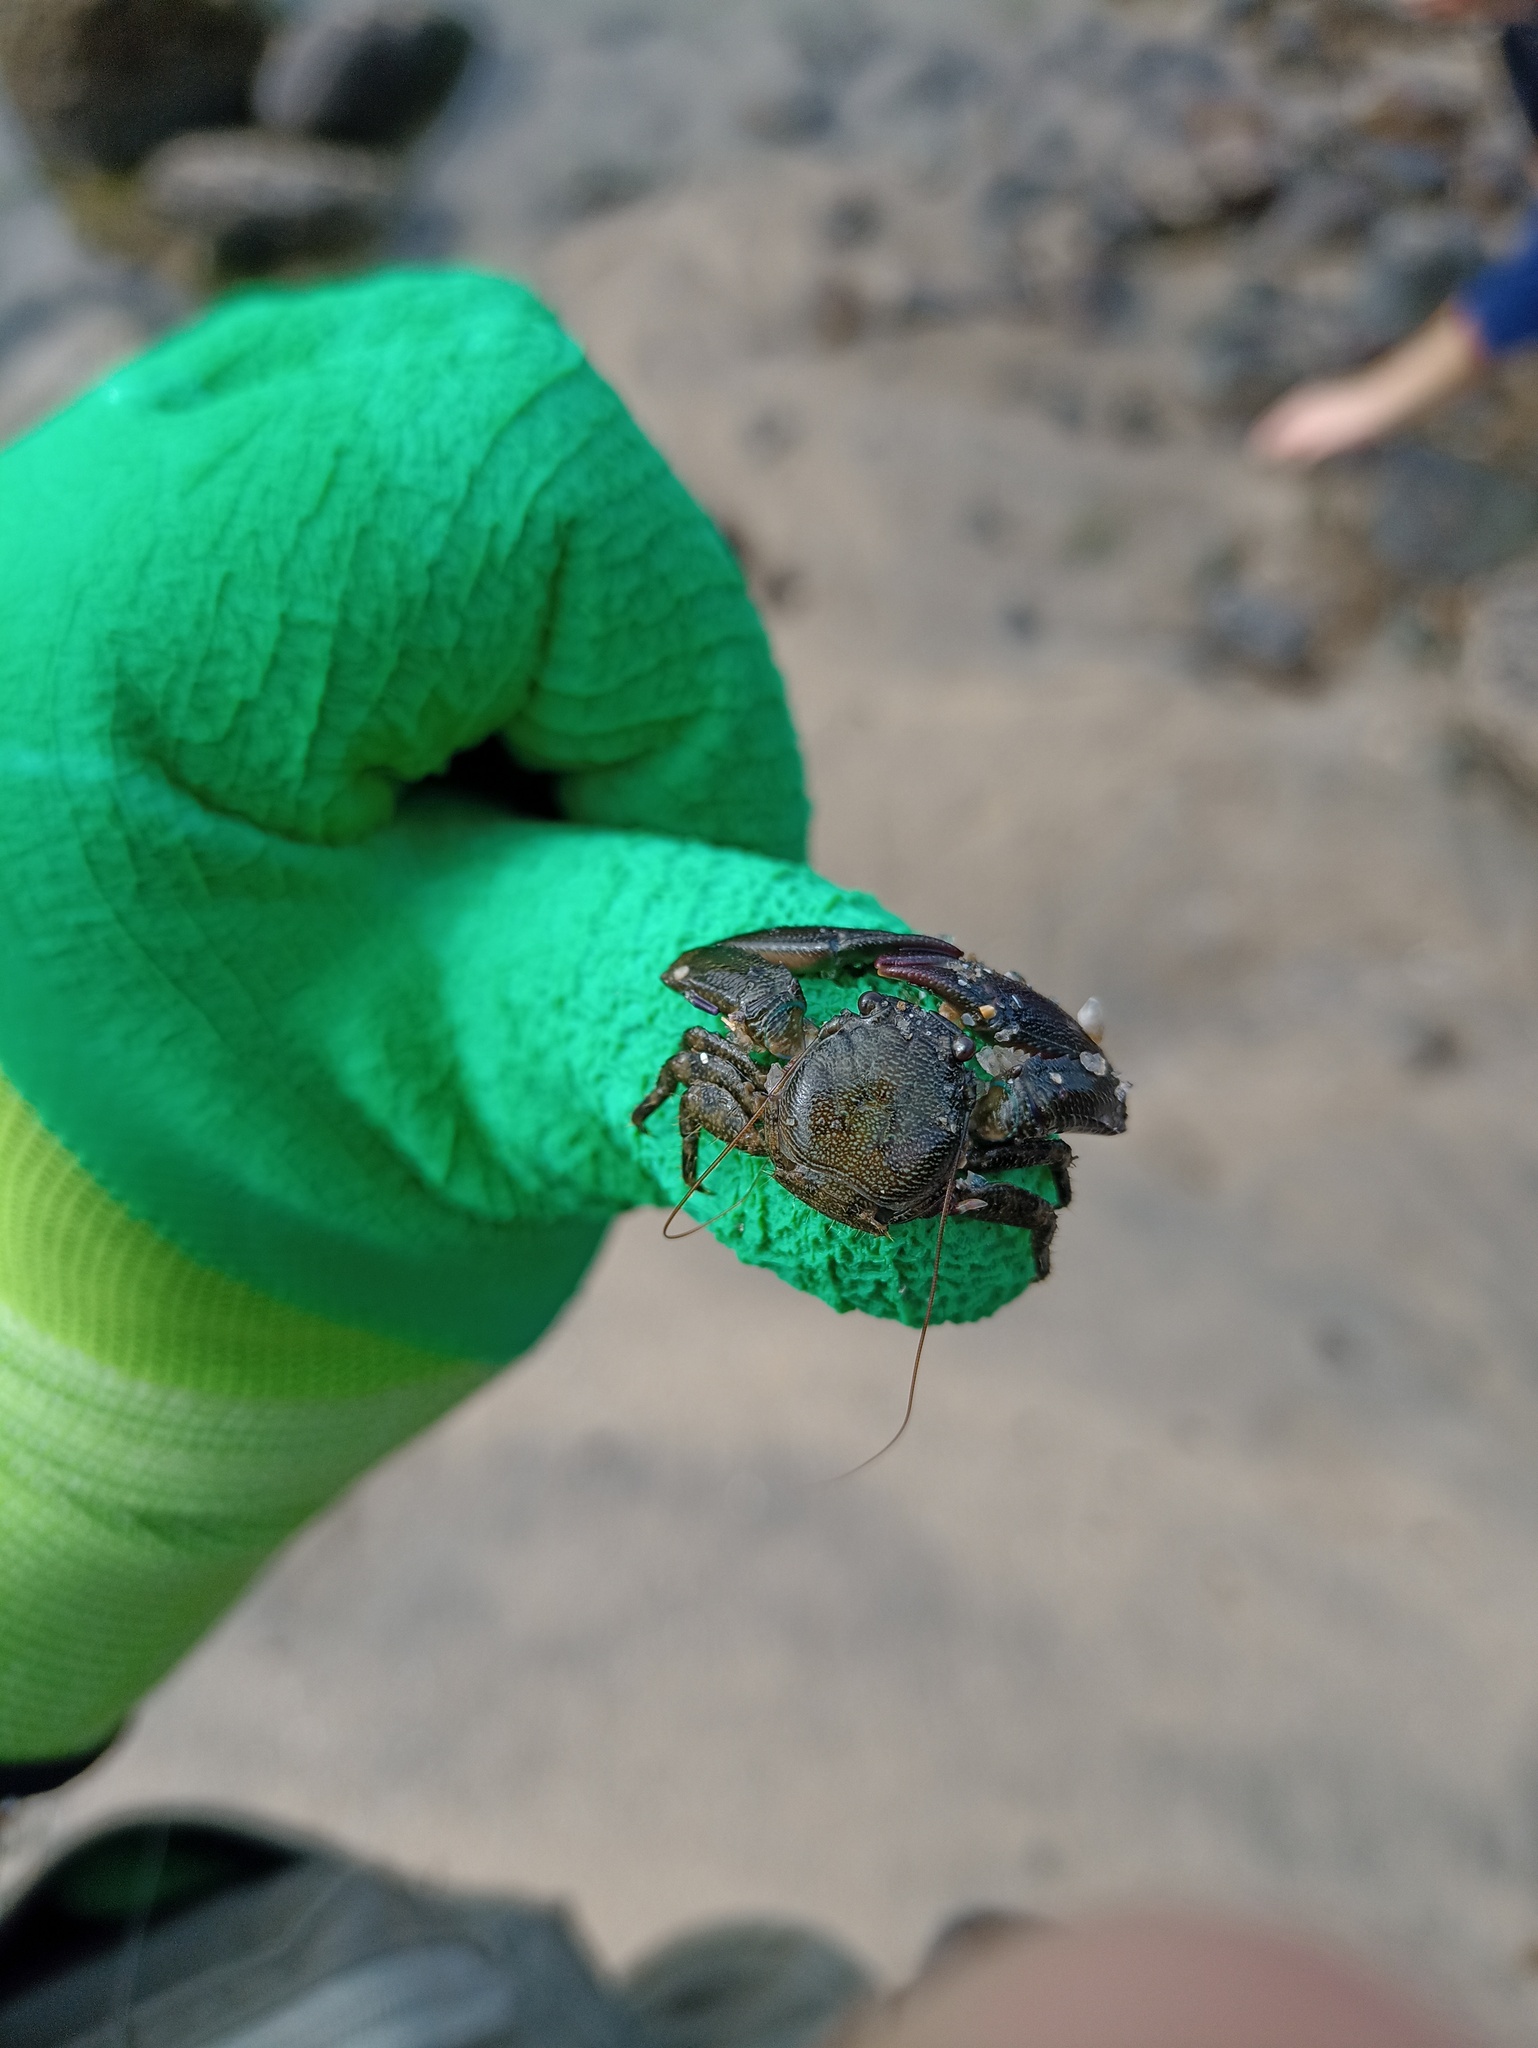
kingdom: Animalia
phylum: Arthropoda
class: Malacostraca
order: Decapoda
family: Porcellanidae
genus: Petrolisthes
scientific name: Petrolisthes armatus
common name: Green porcelain crab
